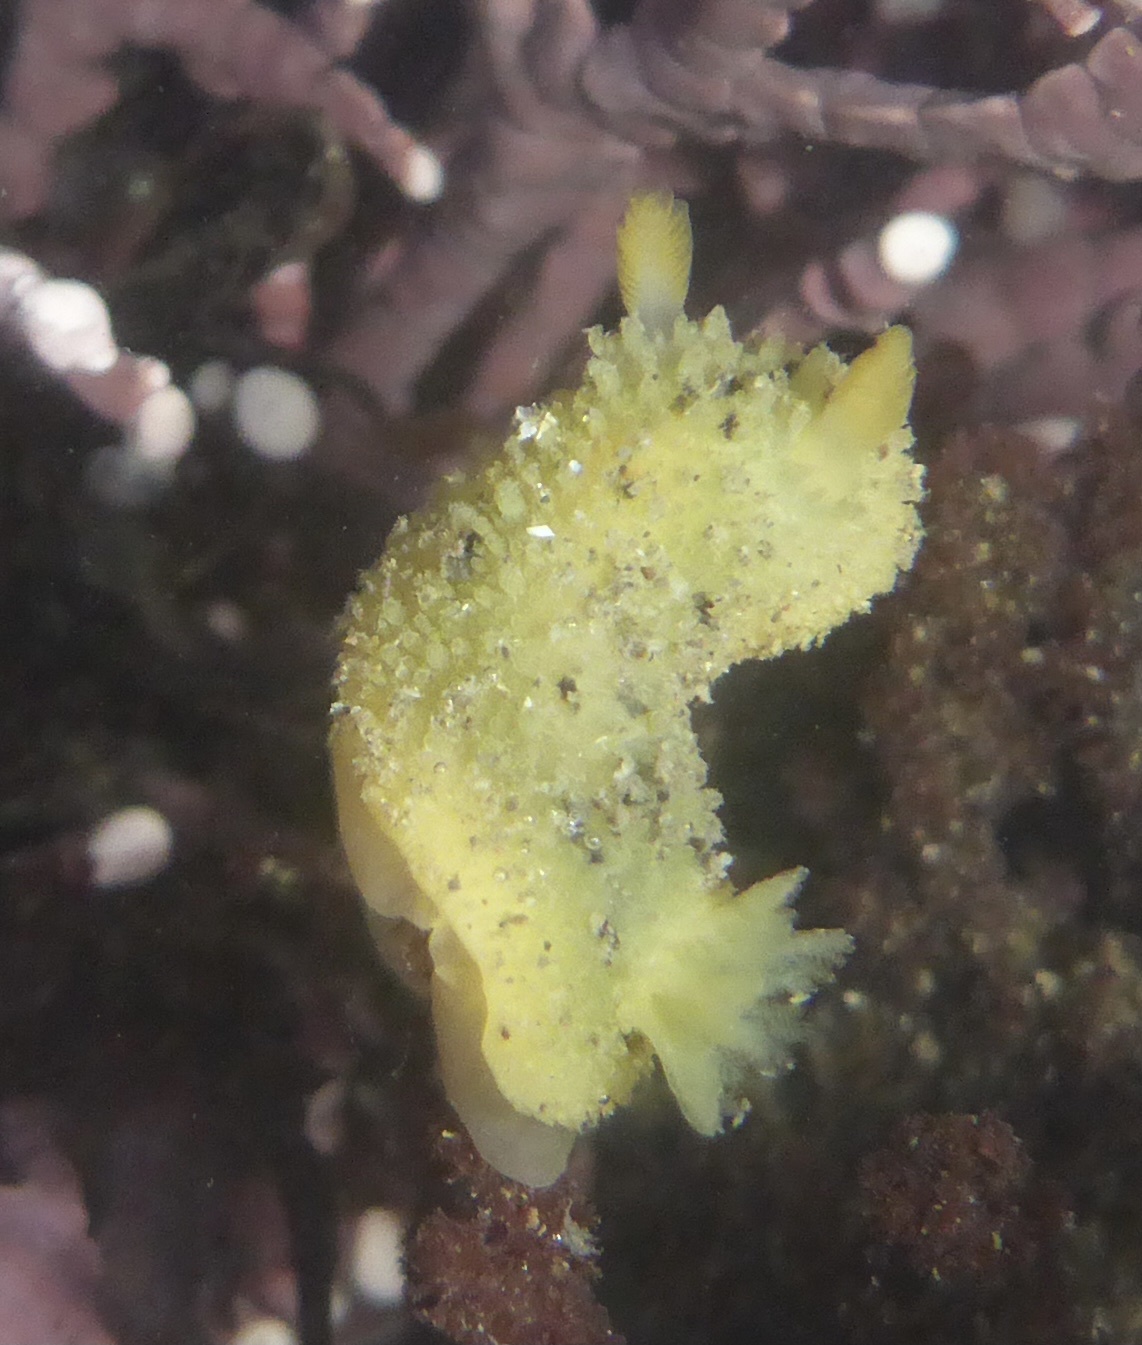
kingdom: Animalia
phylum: Mollusca
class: Gastropoda
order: Nudibranchia
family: Dorididae
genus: Doris
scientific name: Doris montereyensis
